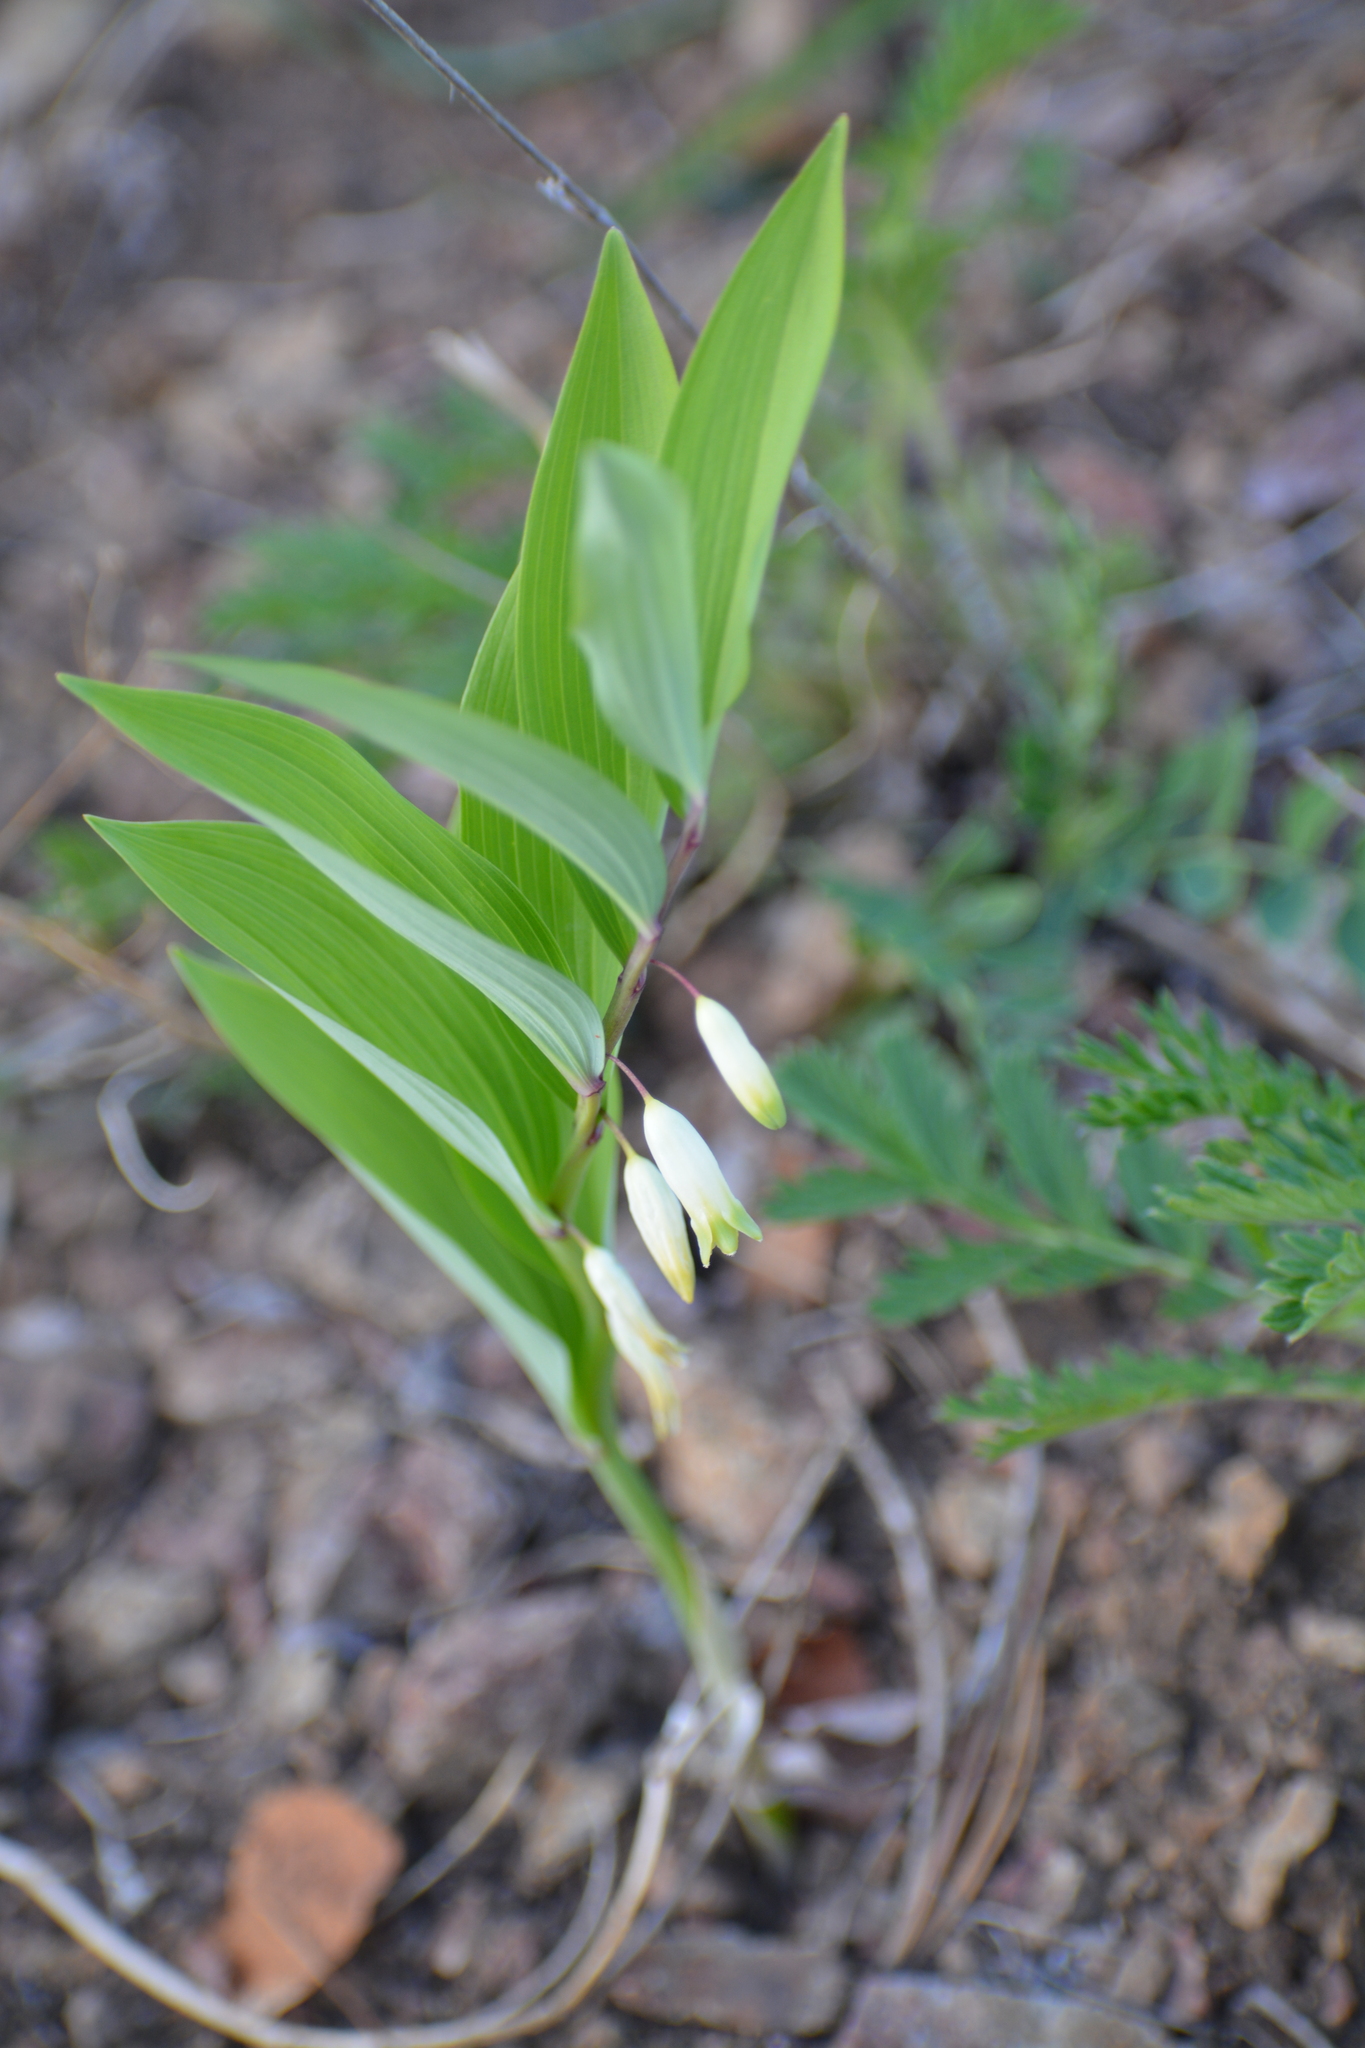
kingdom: Plantae
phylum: Tracheophyta
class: Liliopsida
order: Asparagales
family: Asparagaceae
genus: Polygonatum
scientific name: Polygonatum odoratum
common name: Angular solomon's-seal
